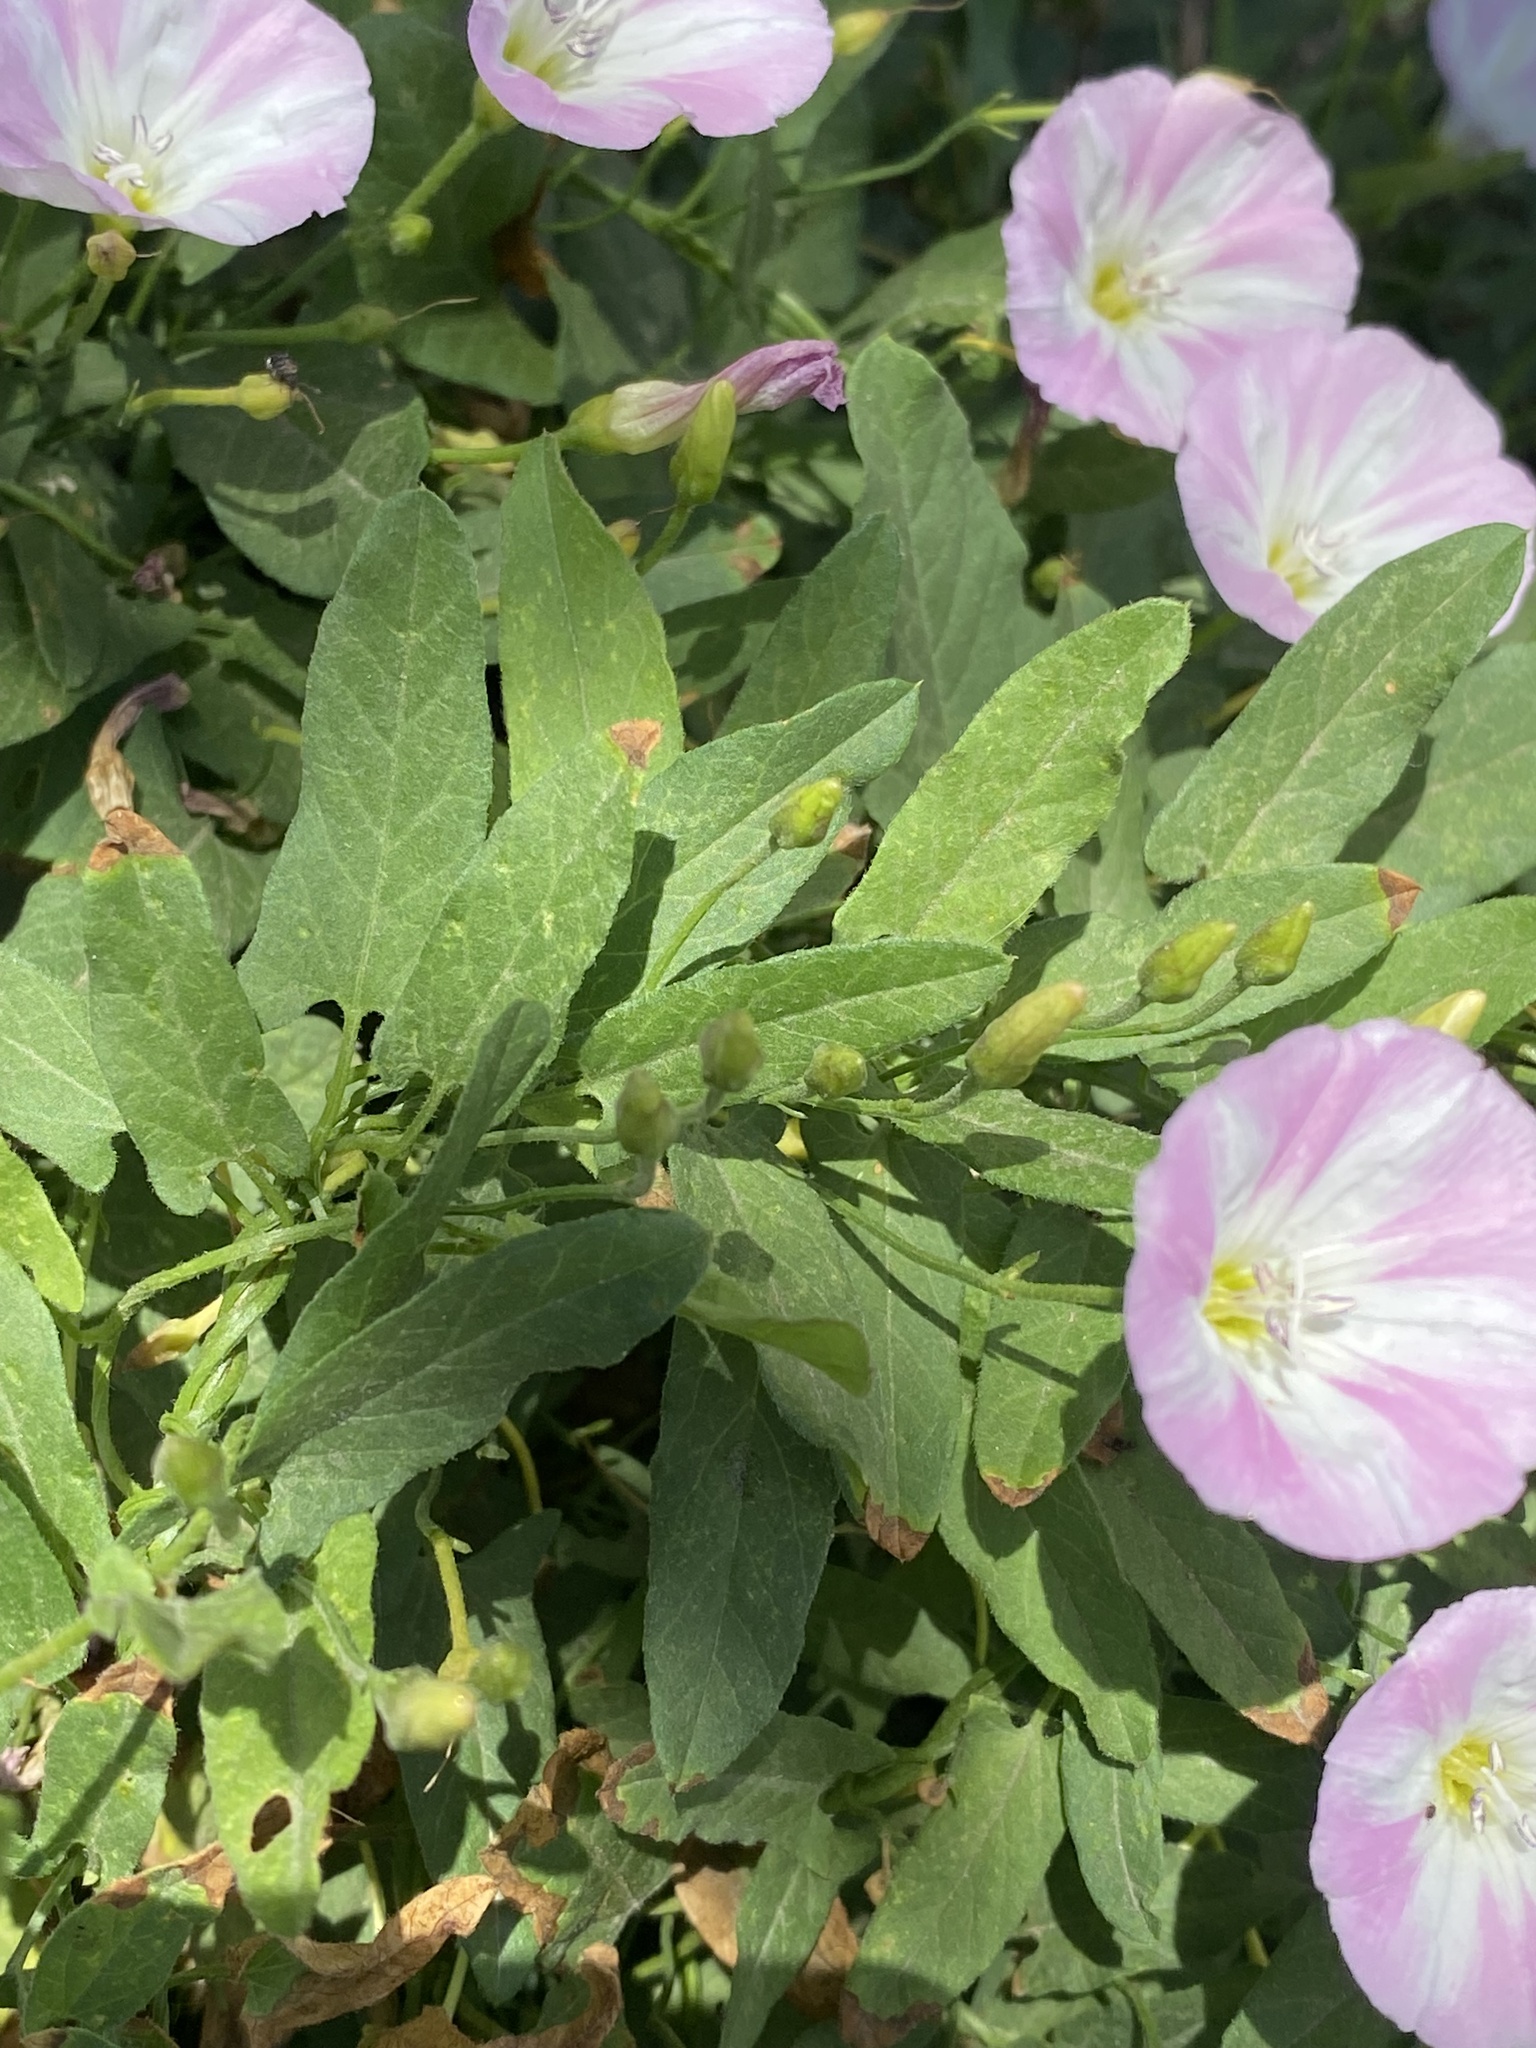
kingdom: Plantae
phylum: Tracheophyta
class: Magnoliopsida
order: Solanales
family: Convolvulaceae
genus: Convolvulus
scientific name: Convolvulus arvensis
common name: Field bindweed
